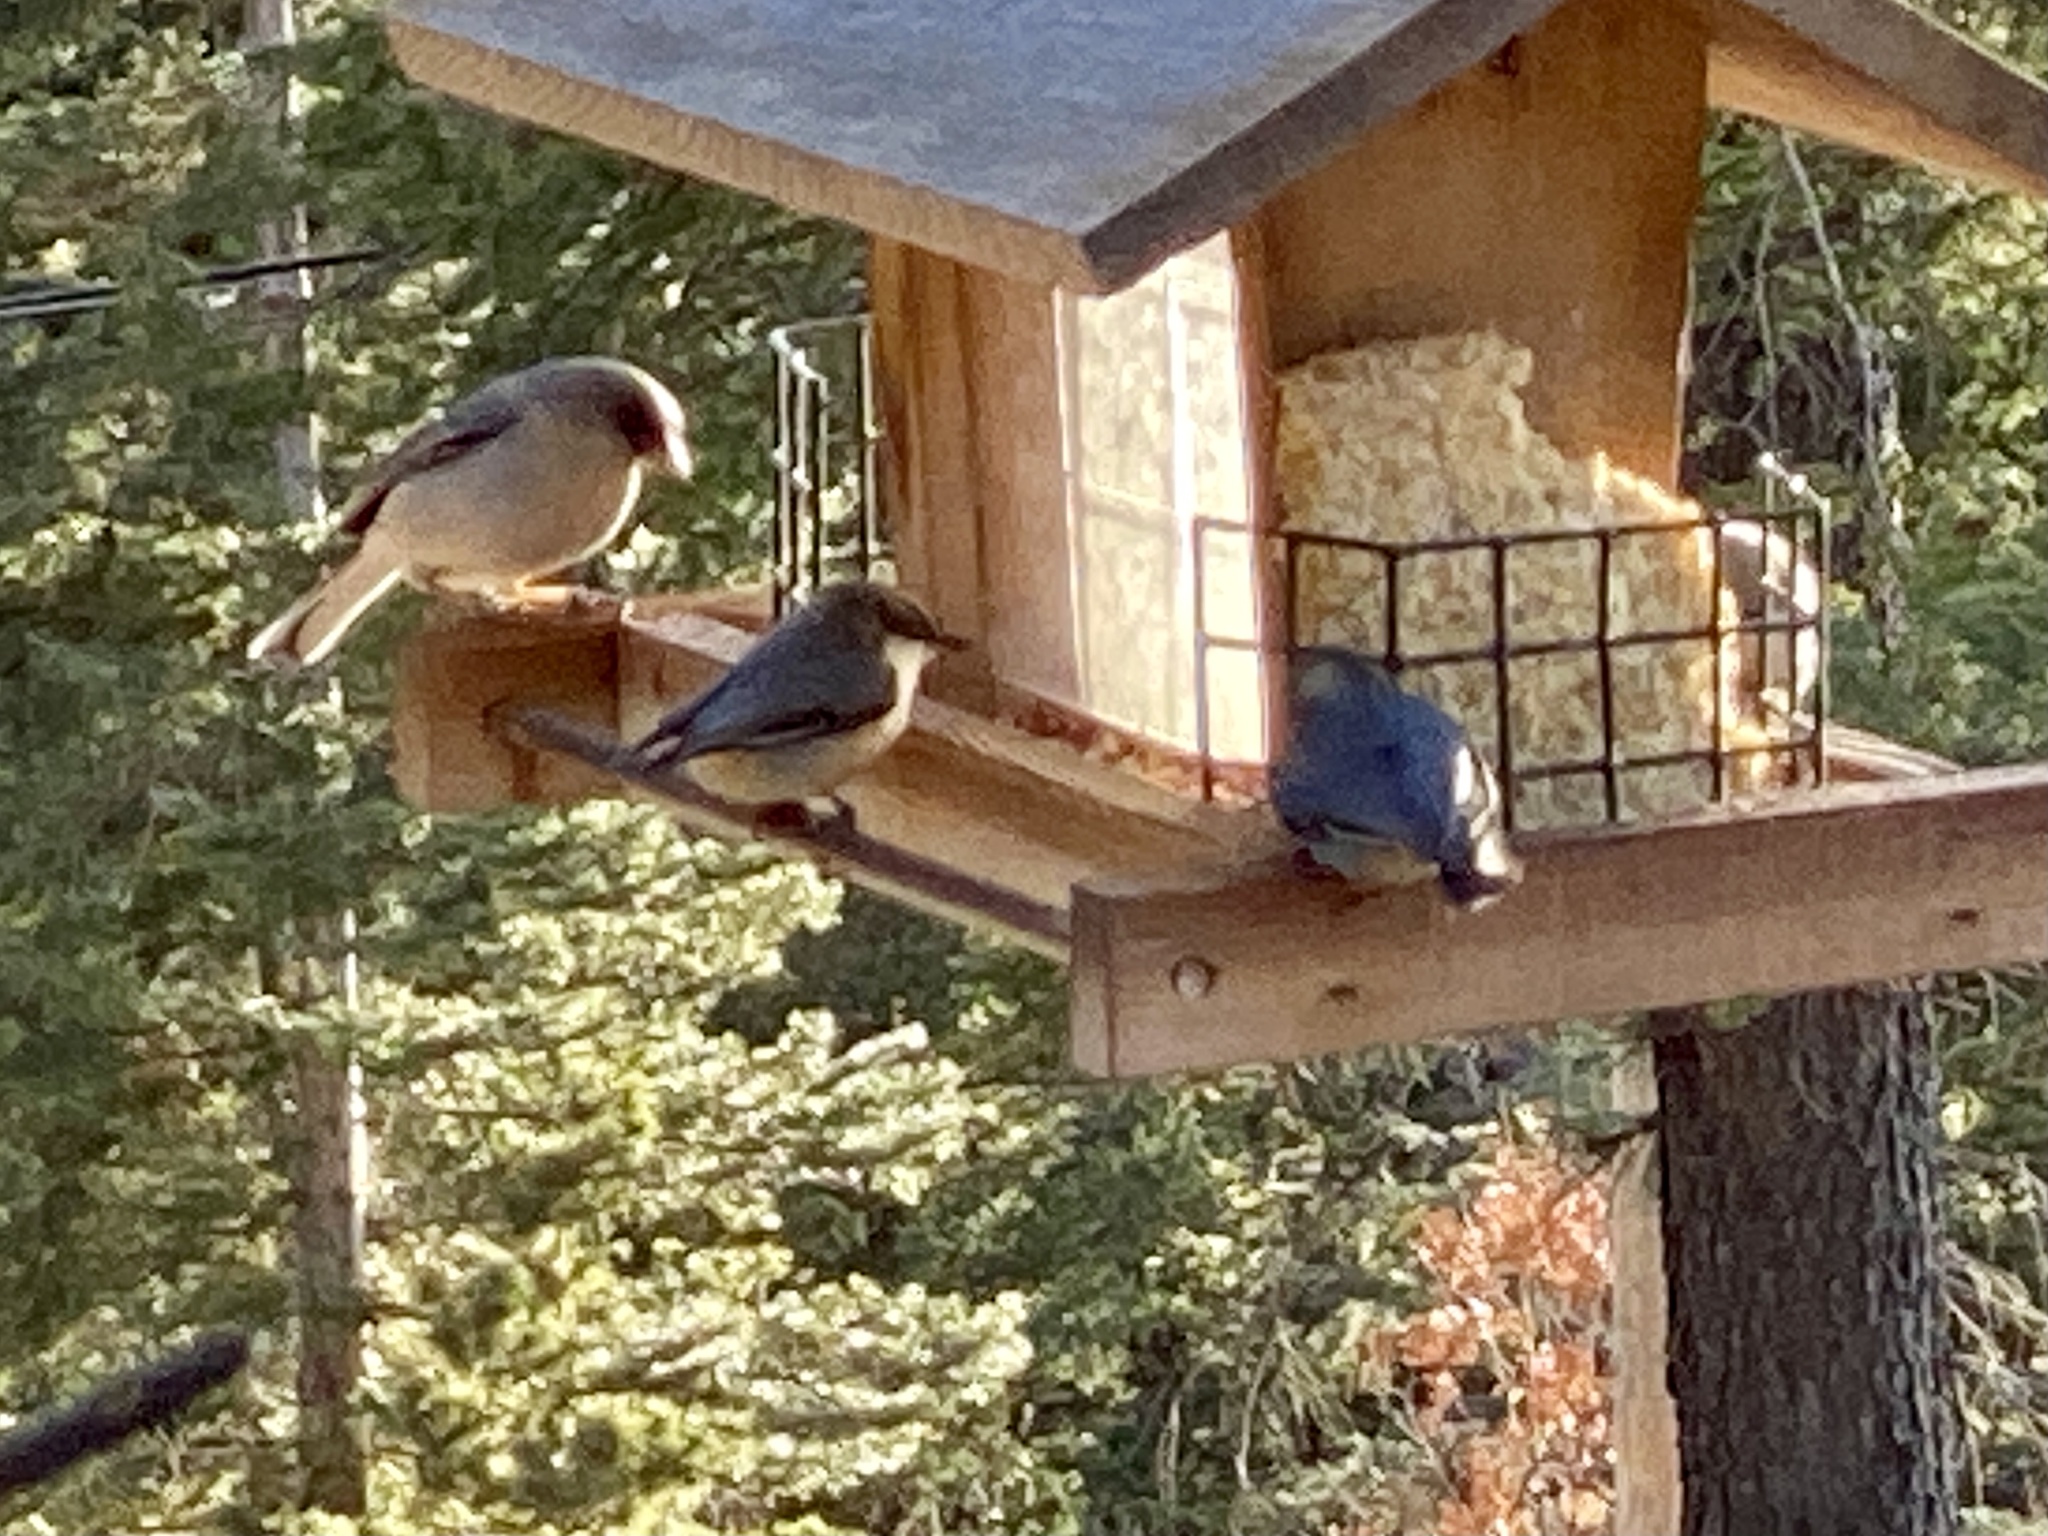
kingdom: Animalia
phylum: Chordata
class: Aves
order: Passeriformes
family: Sittidae
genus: Sitta
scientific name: Sitta pygmaea
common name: Pygmy nuthatch
